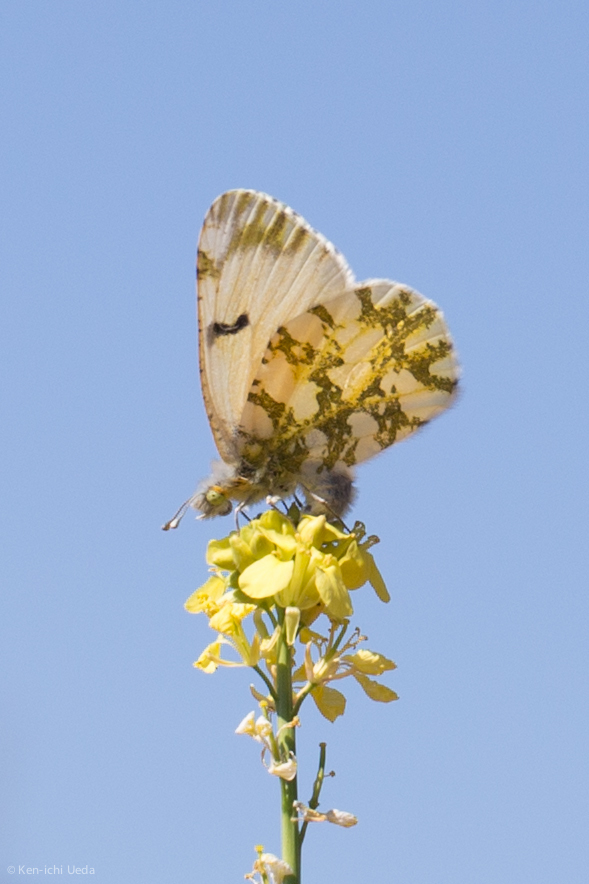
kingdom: Animalia
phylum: Arthropoda
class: Insecta
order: Lepidoptera
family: Pieridae
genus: Euchloe
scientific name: Euchloe ausonides
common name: Creamy marblewing
